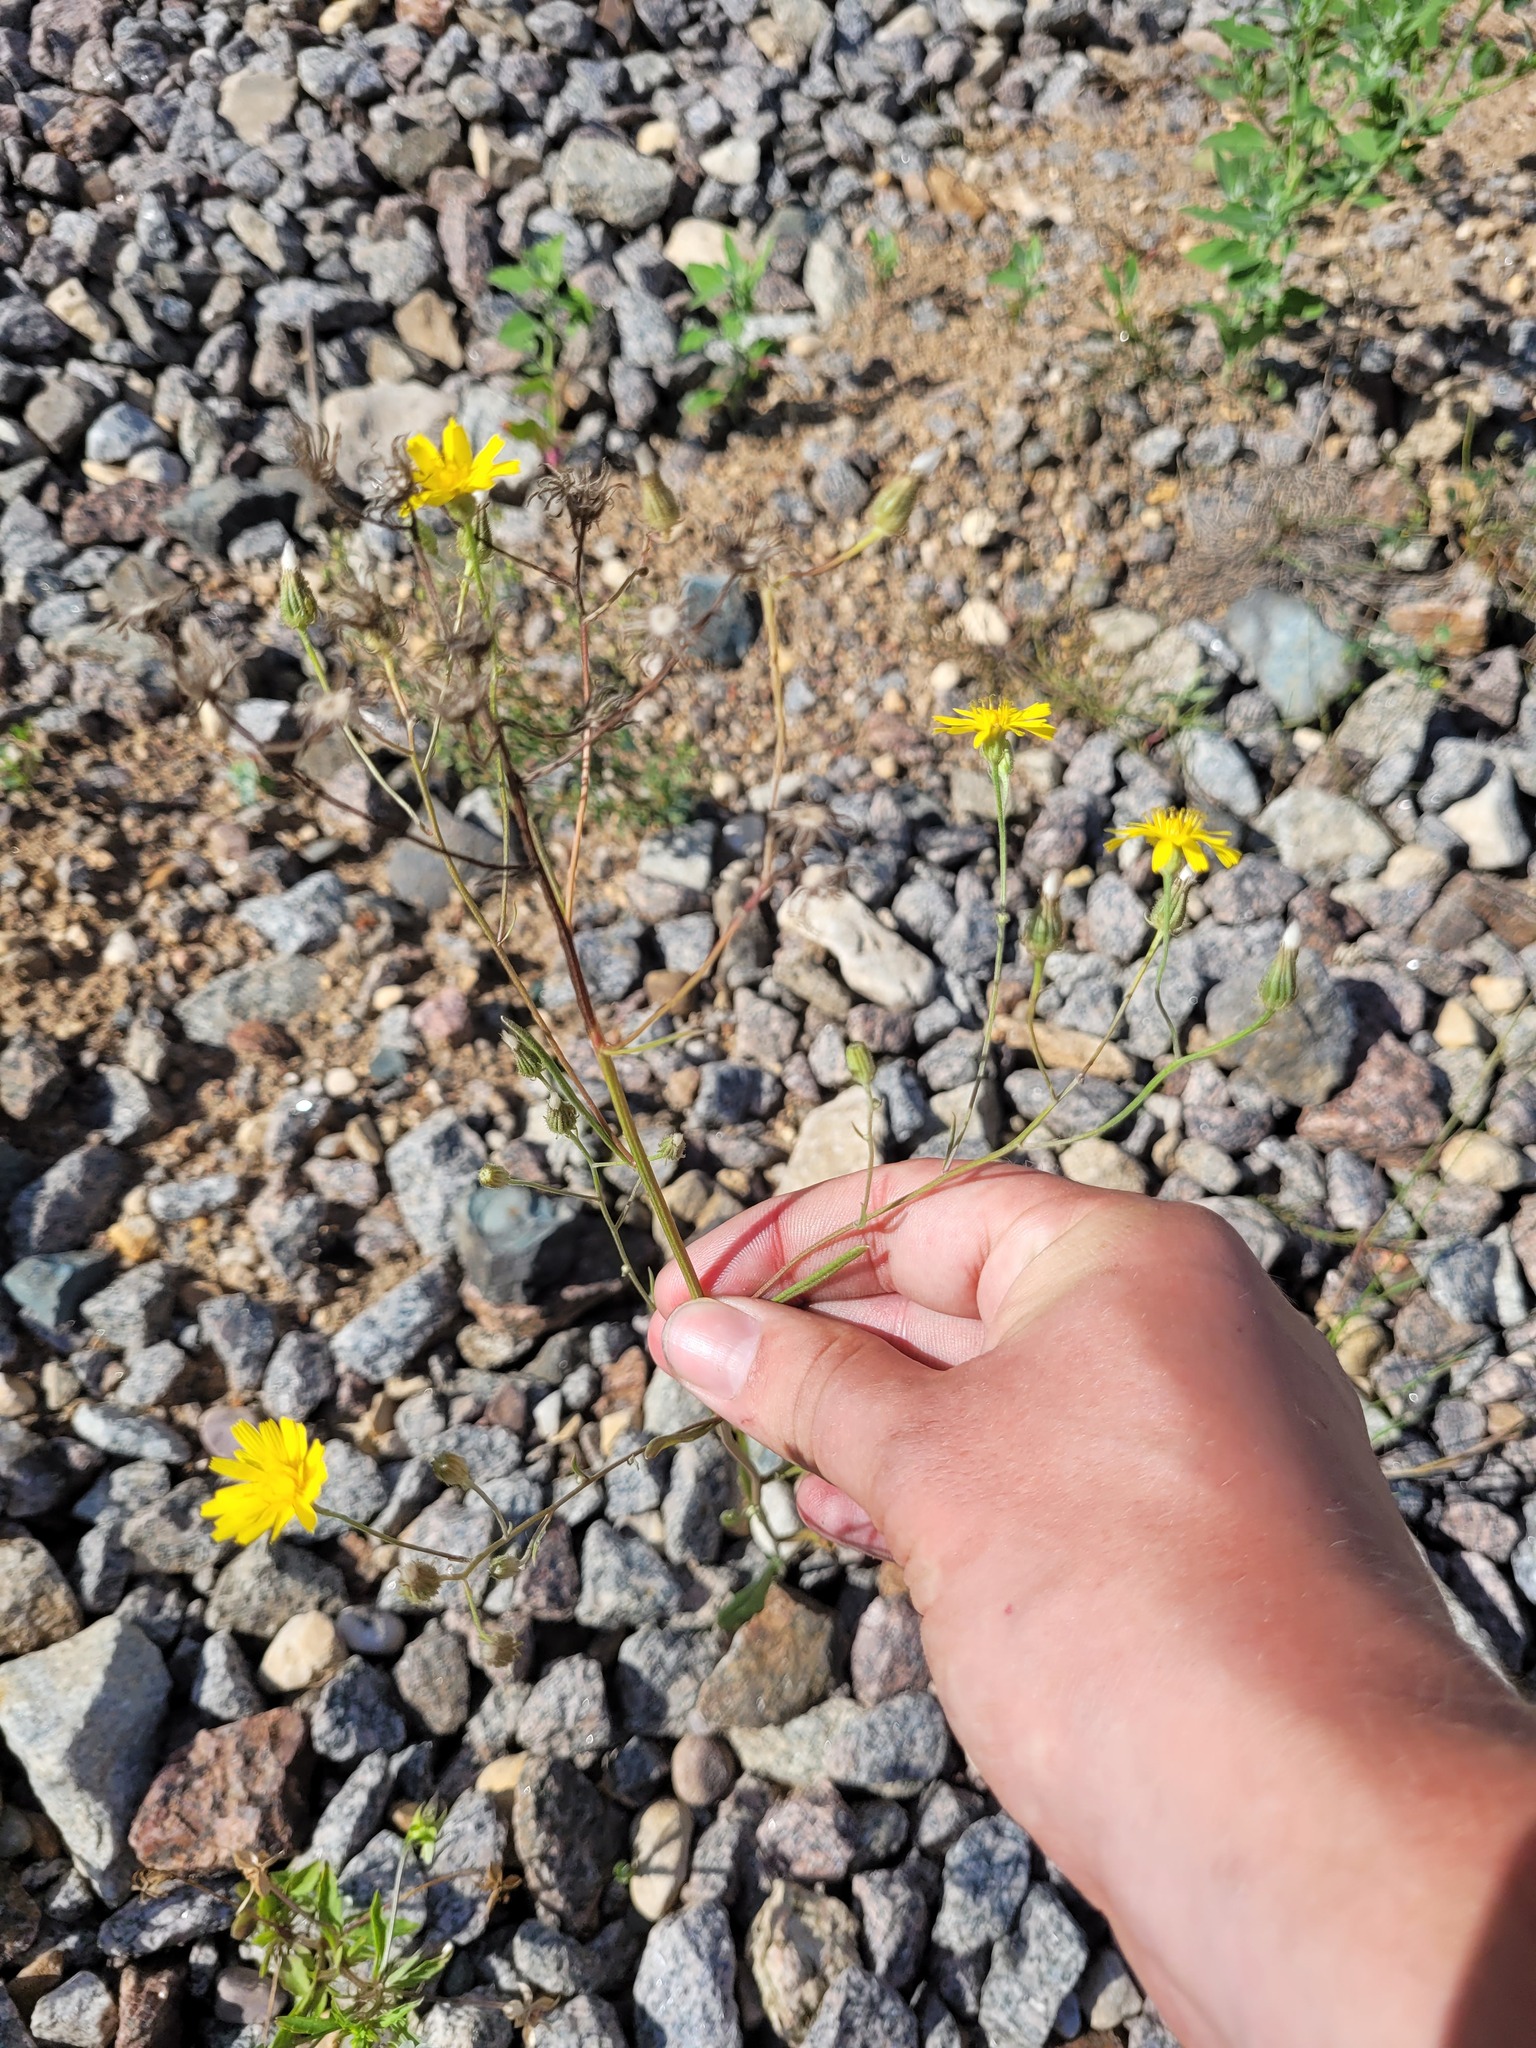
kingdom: Plantae
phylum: Tracheophyta
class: Magnoliopsida
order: Asterales
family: Asteraceae
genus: Crepis
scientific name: Crepis tectorum
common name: Narrow-leaved hawk's-beard
